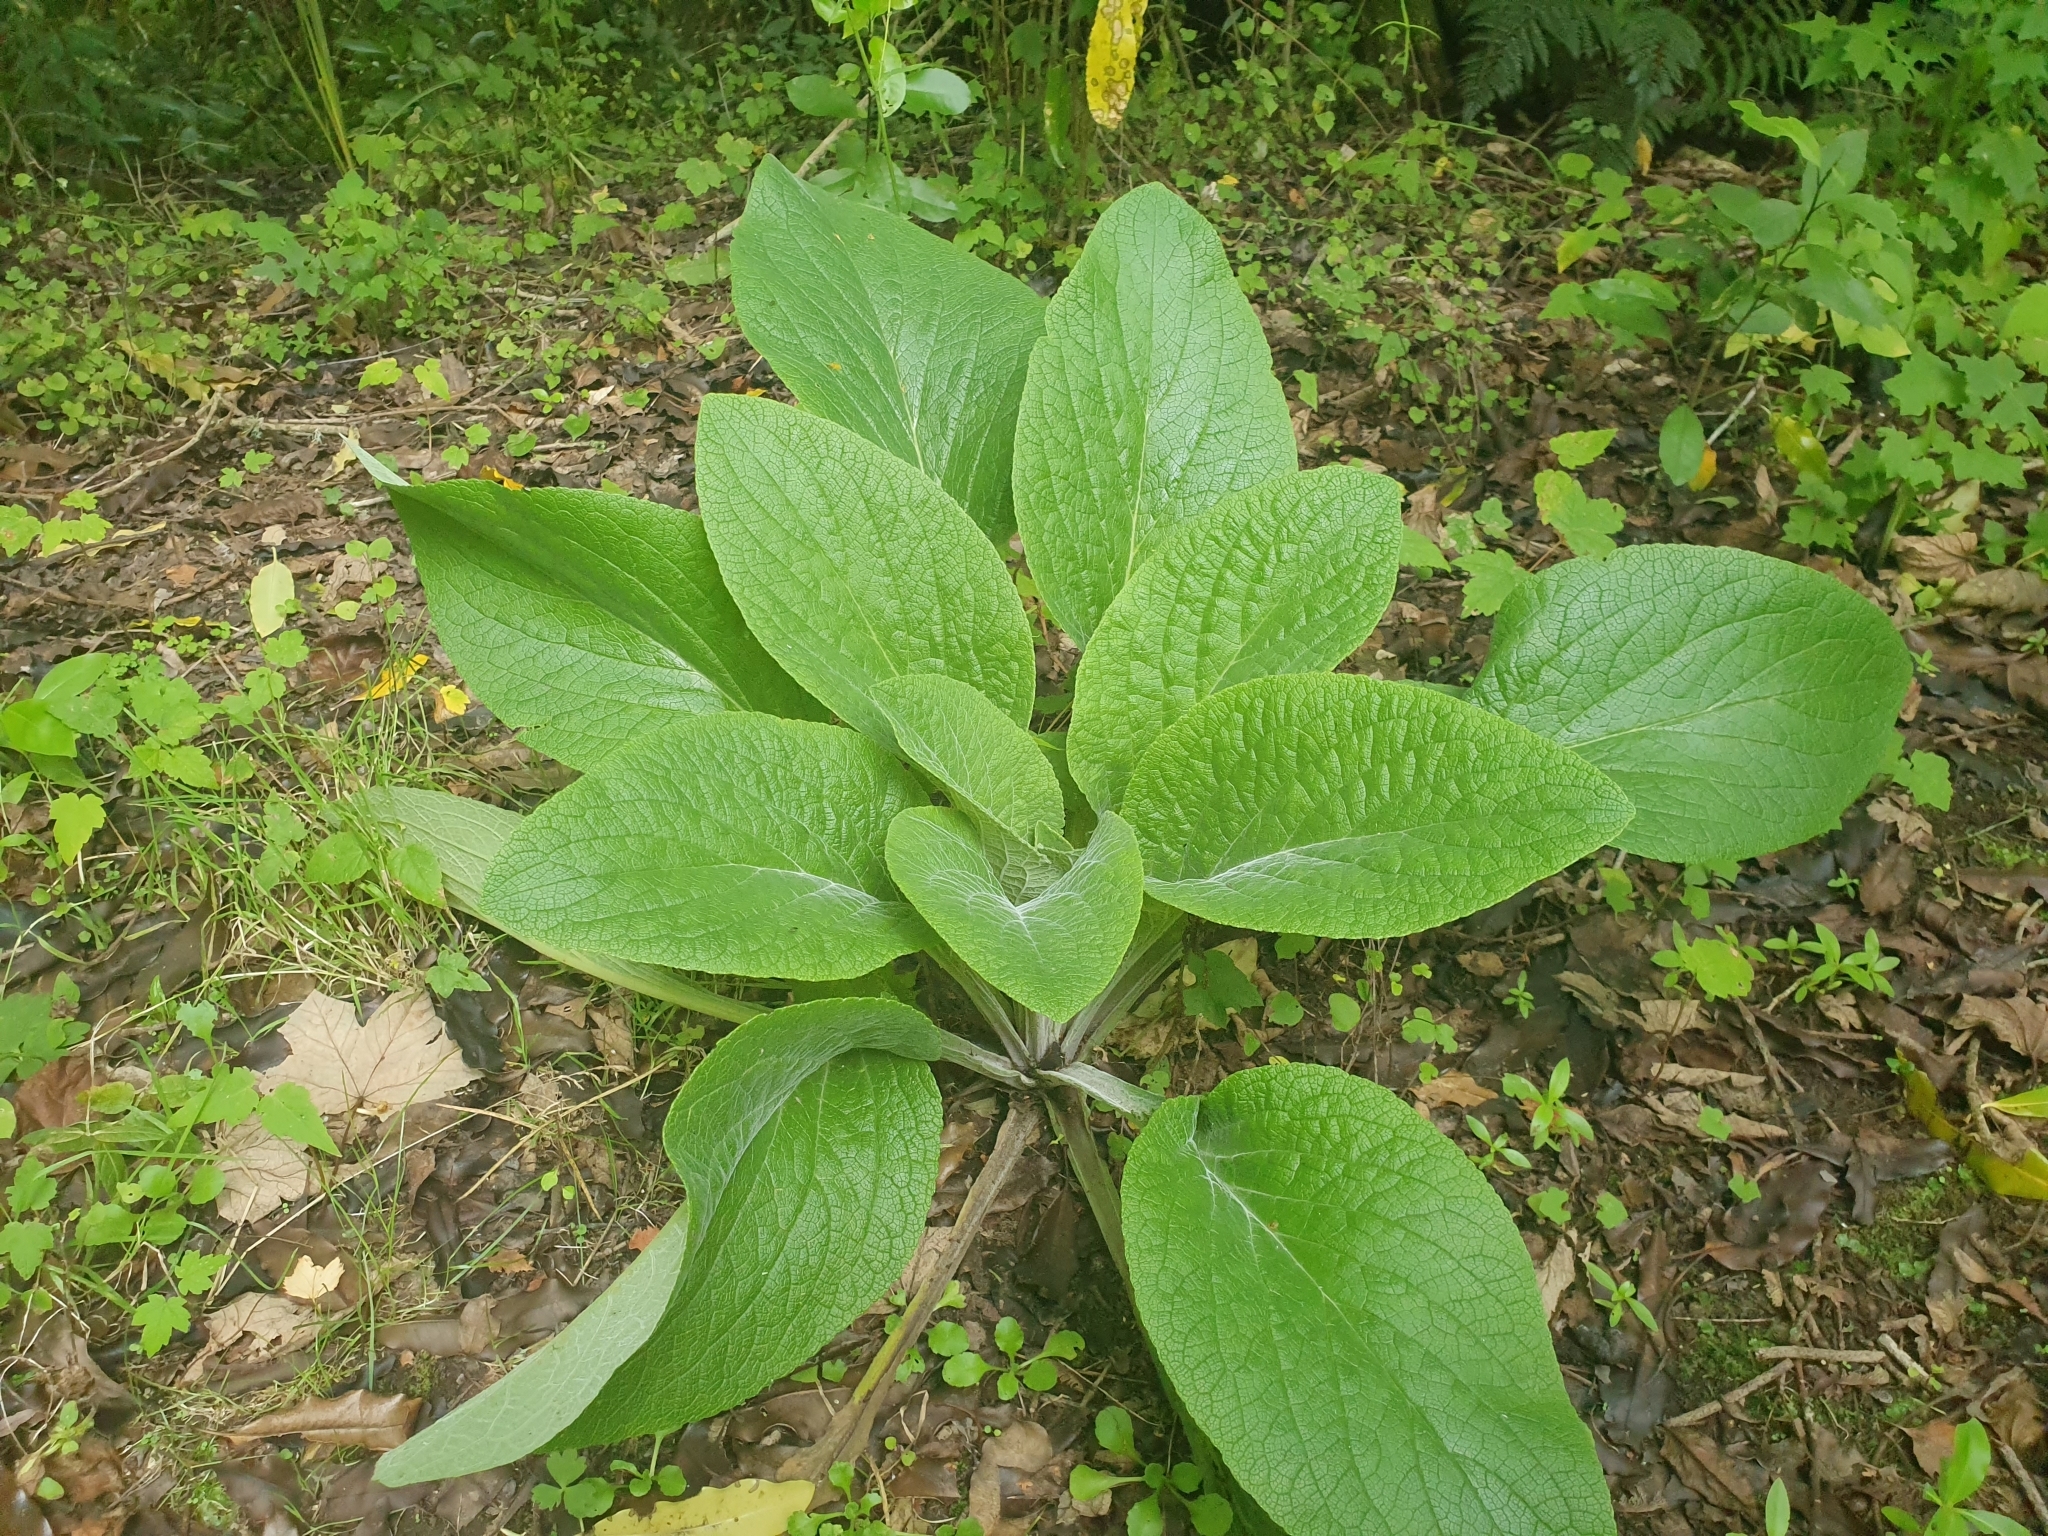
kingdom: Plantae
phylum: Tracheophyta
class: Magnoliopsida
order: Lamiales
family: Plantaginaceae
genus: Digitalis
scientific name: Digitalis purpurea
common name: Foxglove
